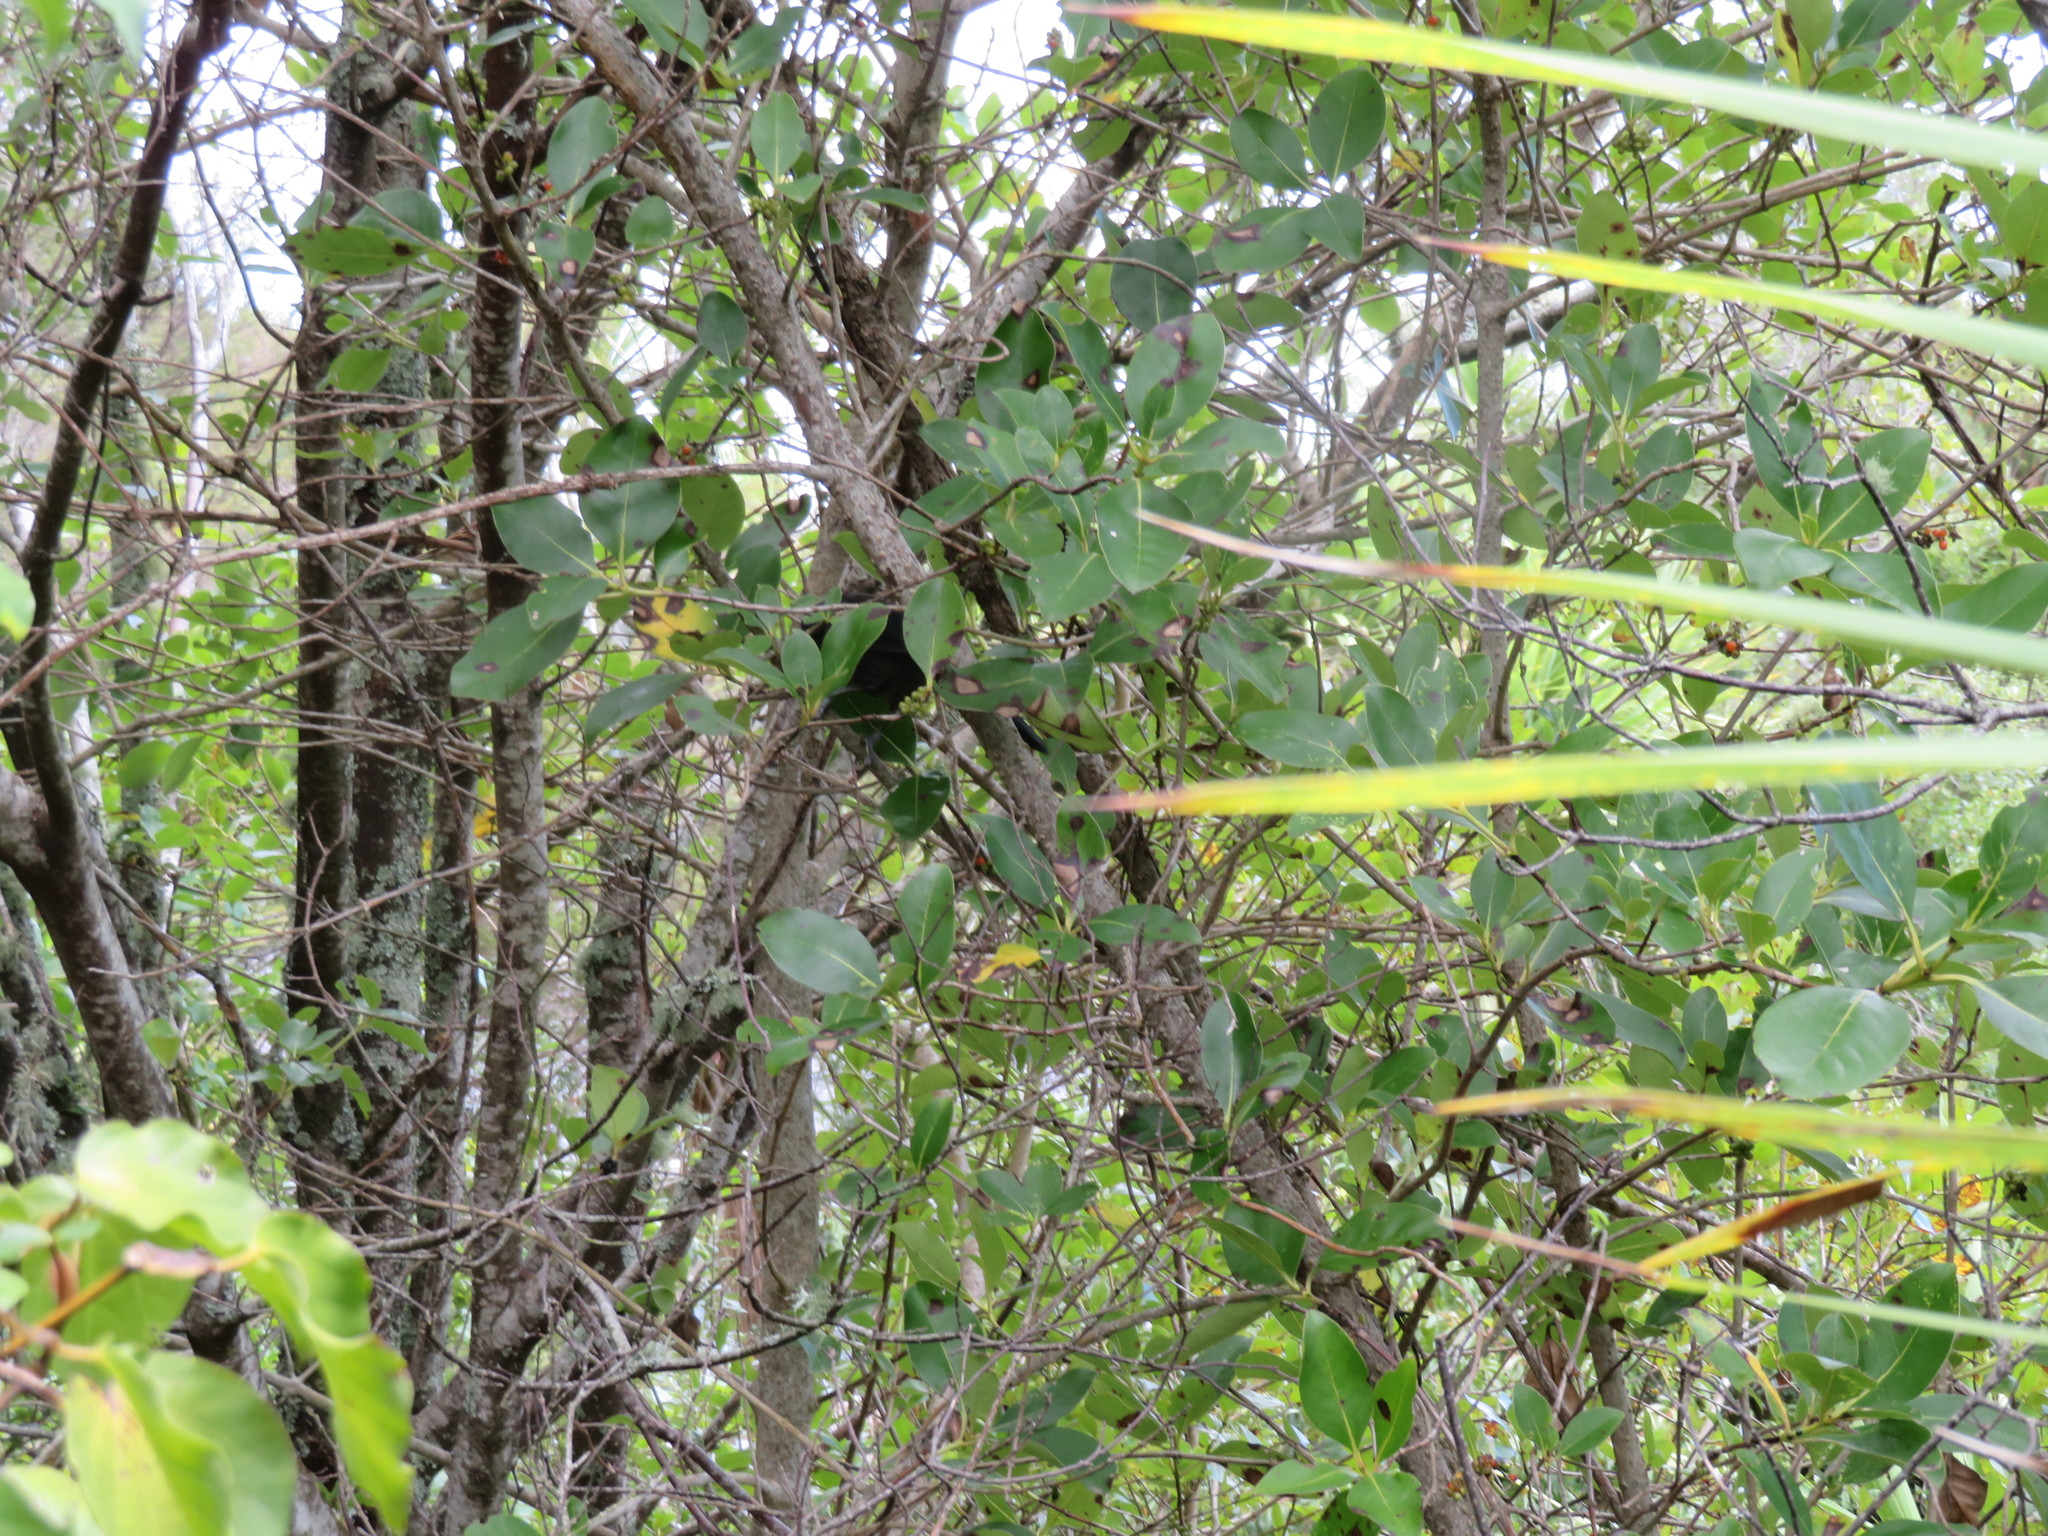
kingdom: Animalia
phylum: Chordata
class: Aves
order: Passeriformes
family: Meliphagidae
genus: Prosthemadera
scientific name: Prosthemadera novaeseelandiae
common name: Tui
